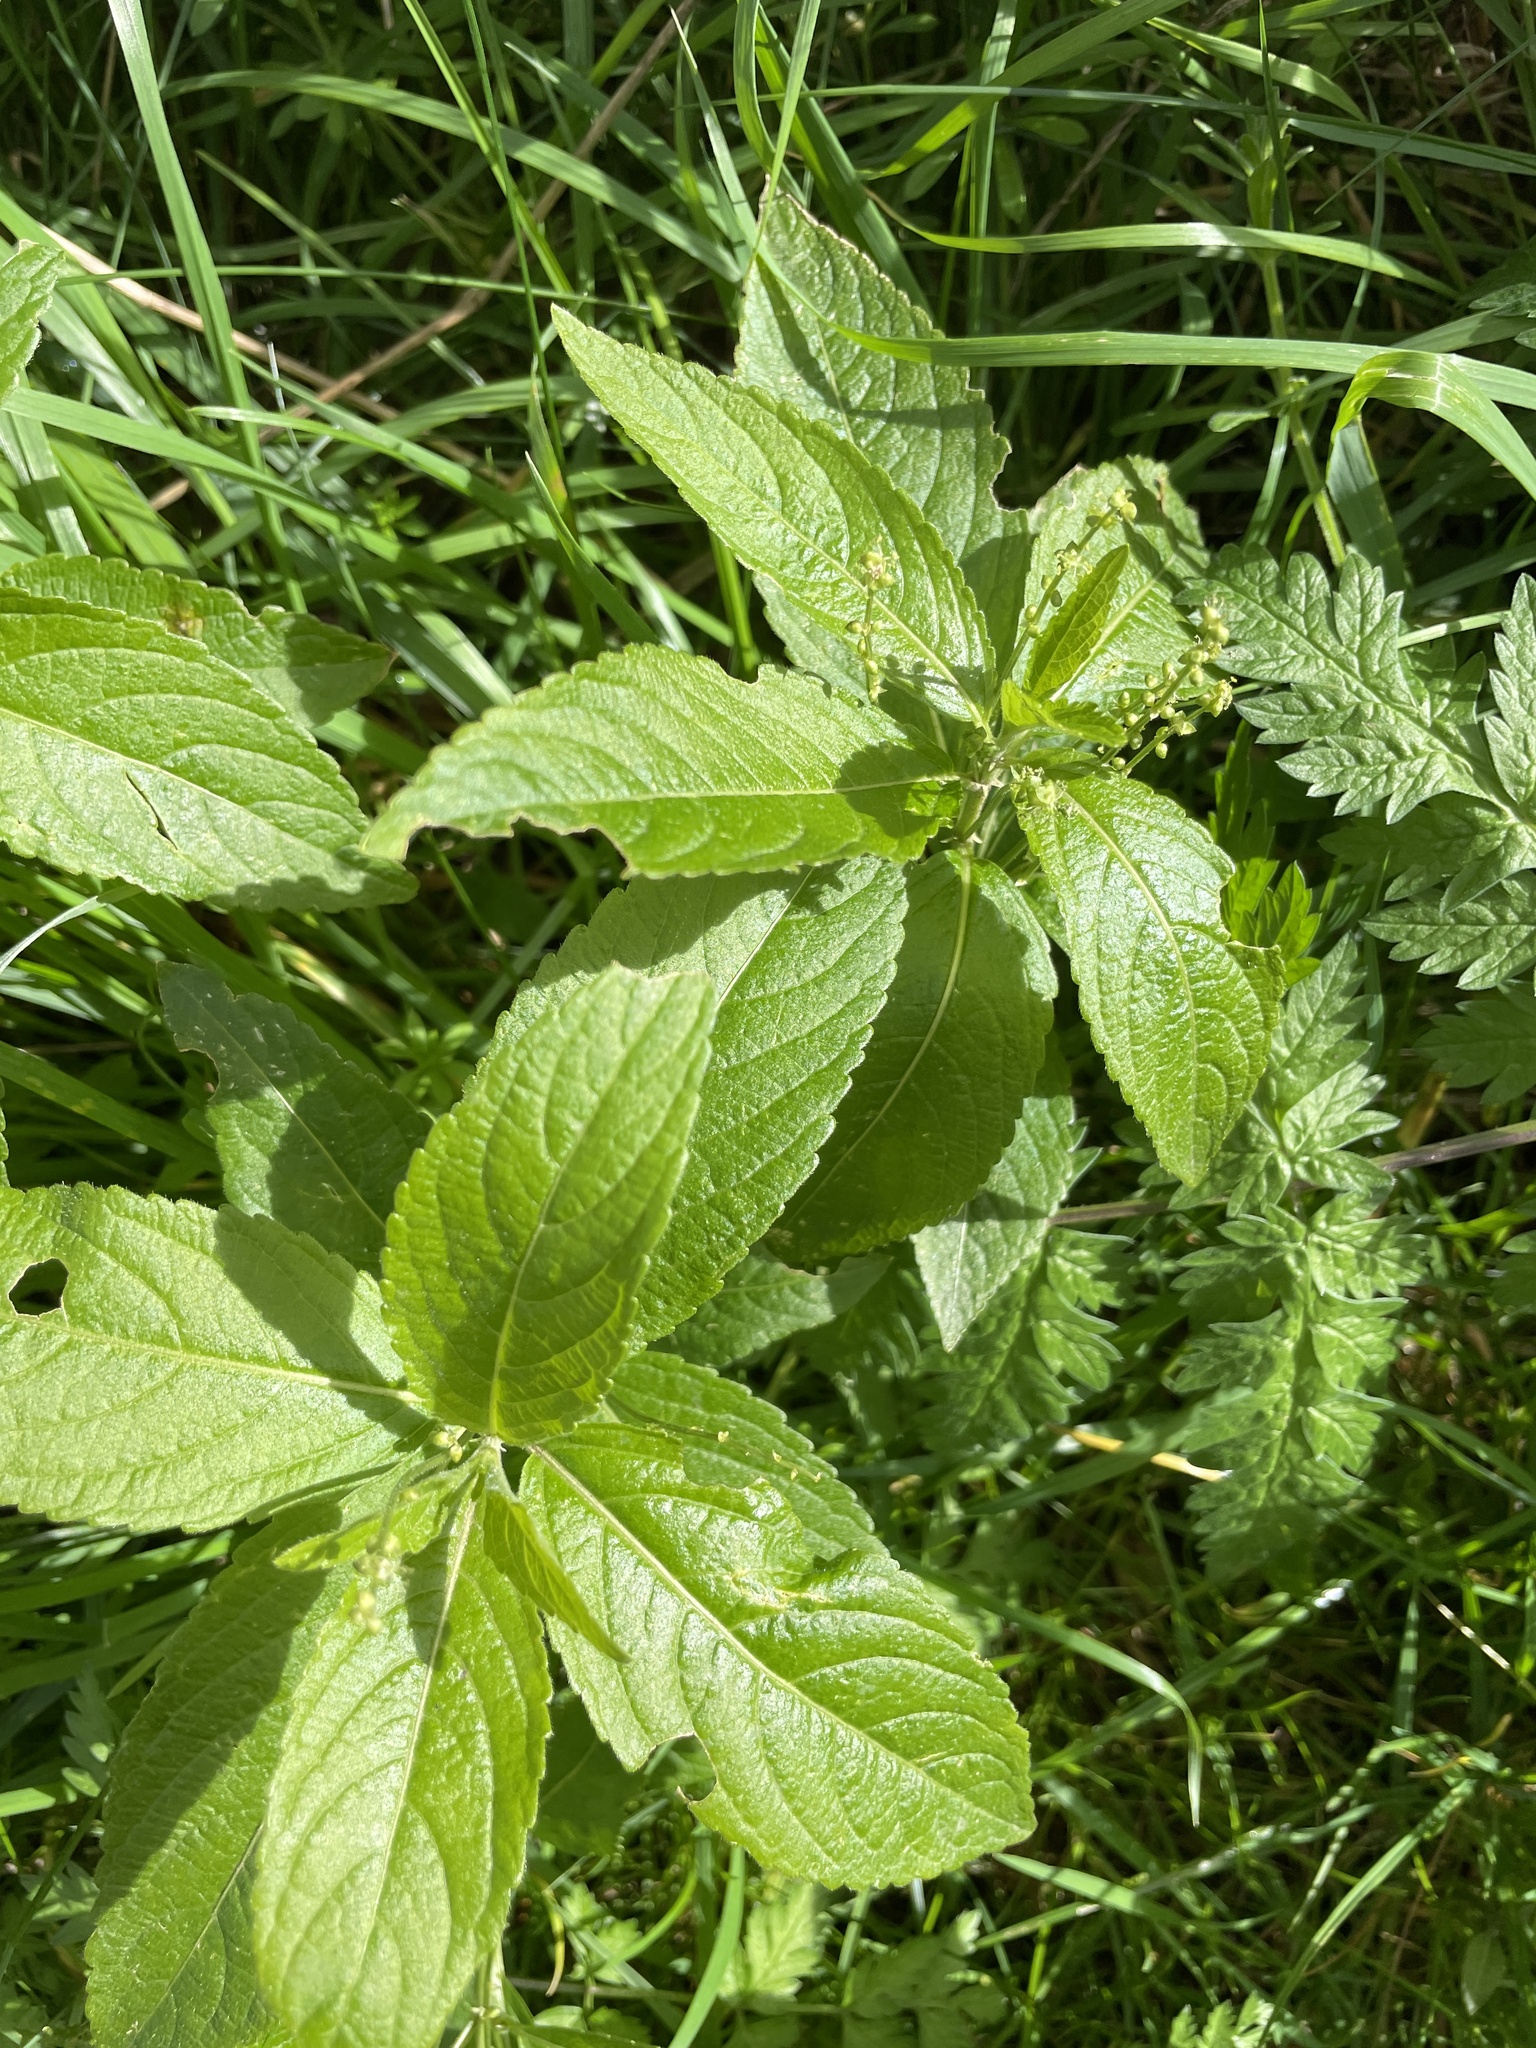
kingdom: Plantae
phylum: Tracheophyta
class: Magnoliopsida
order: Malpighiales
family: Euphorbiaceae
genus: Mercurialis
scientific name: Mercurialis perennis
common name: Dog mercury
